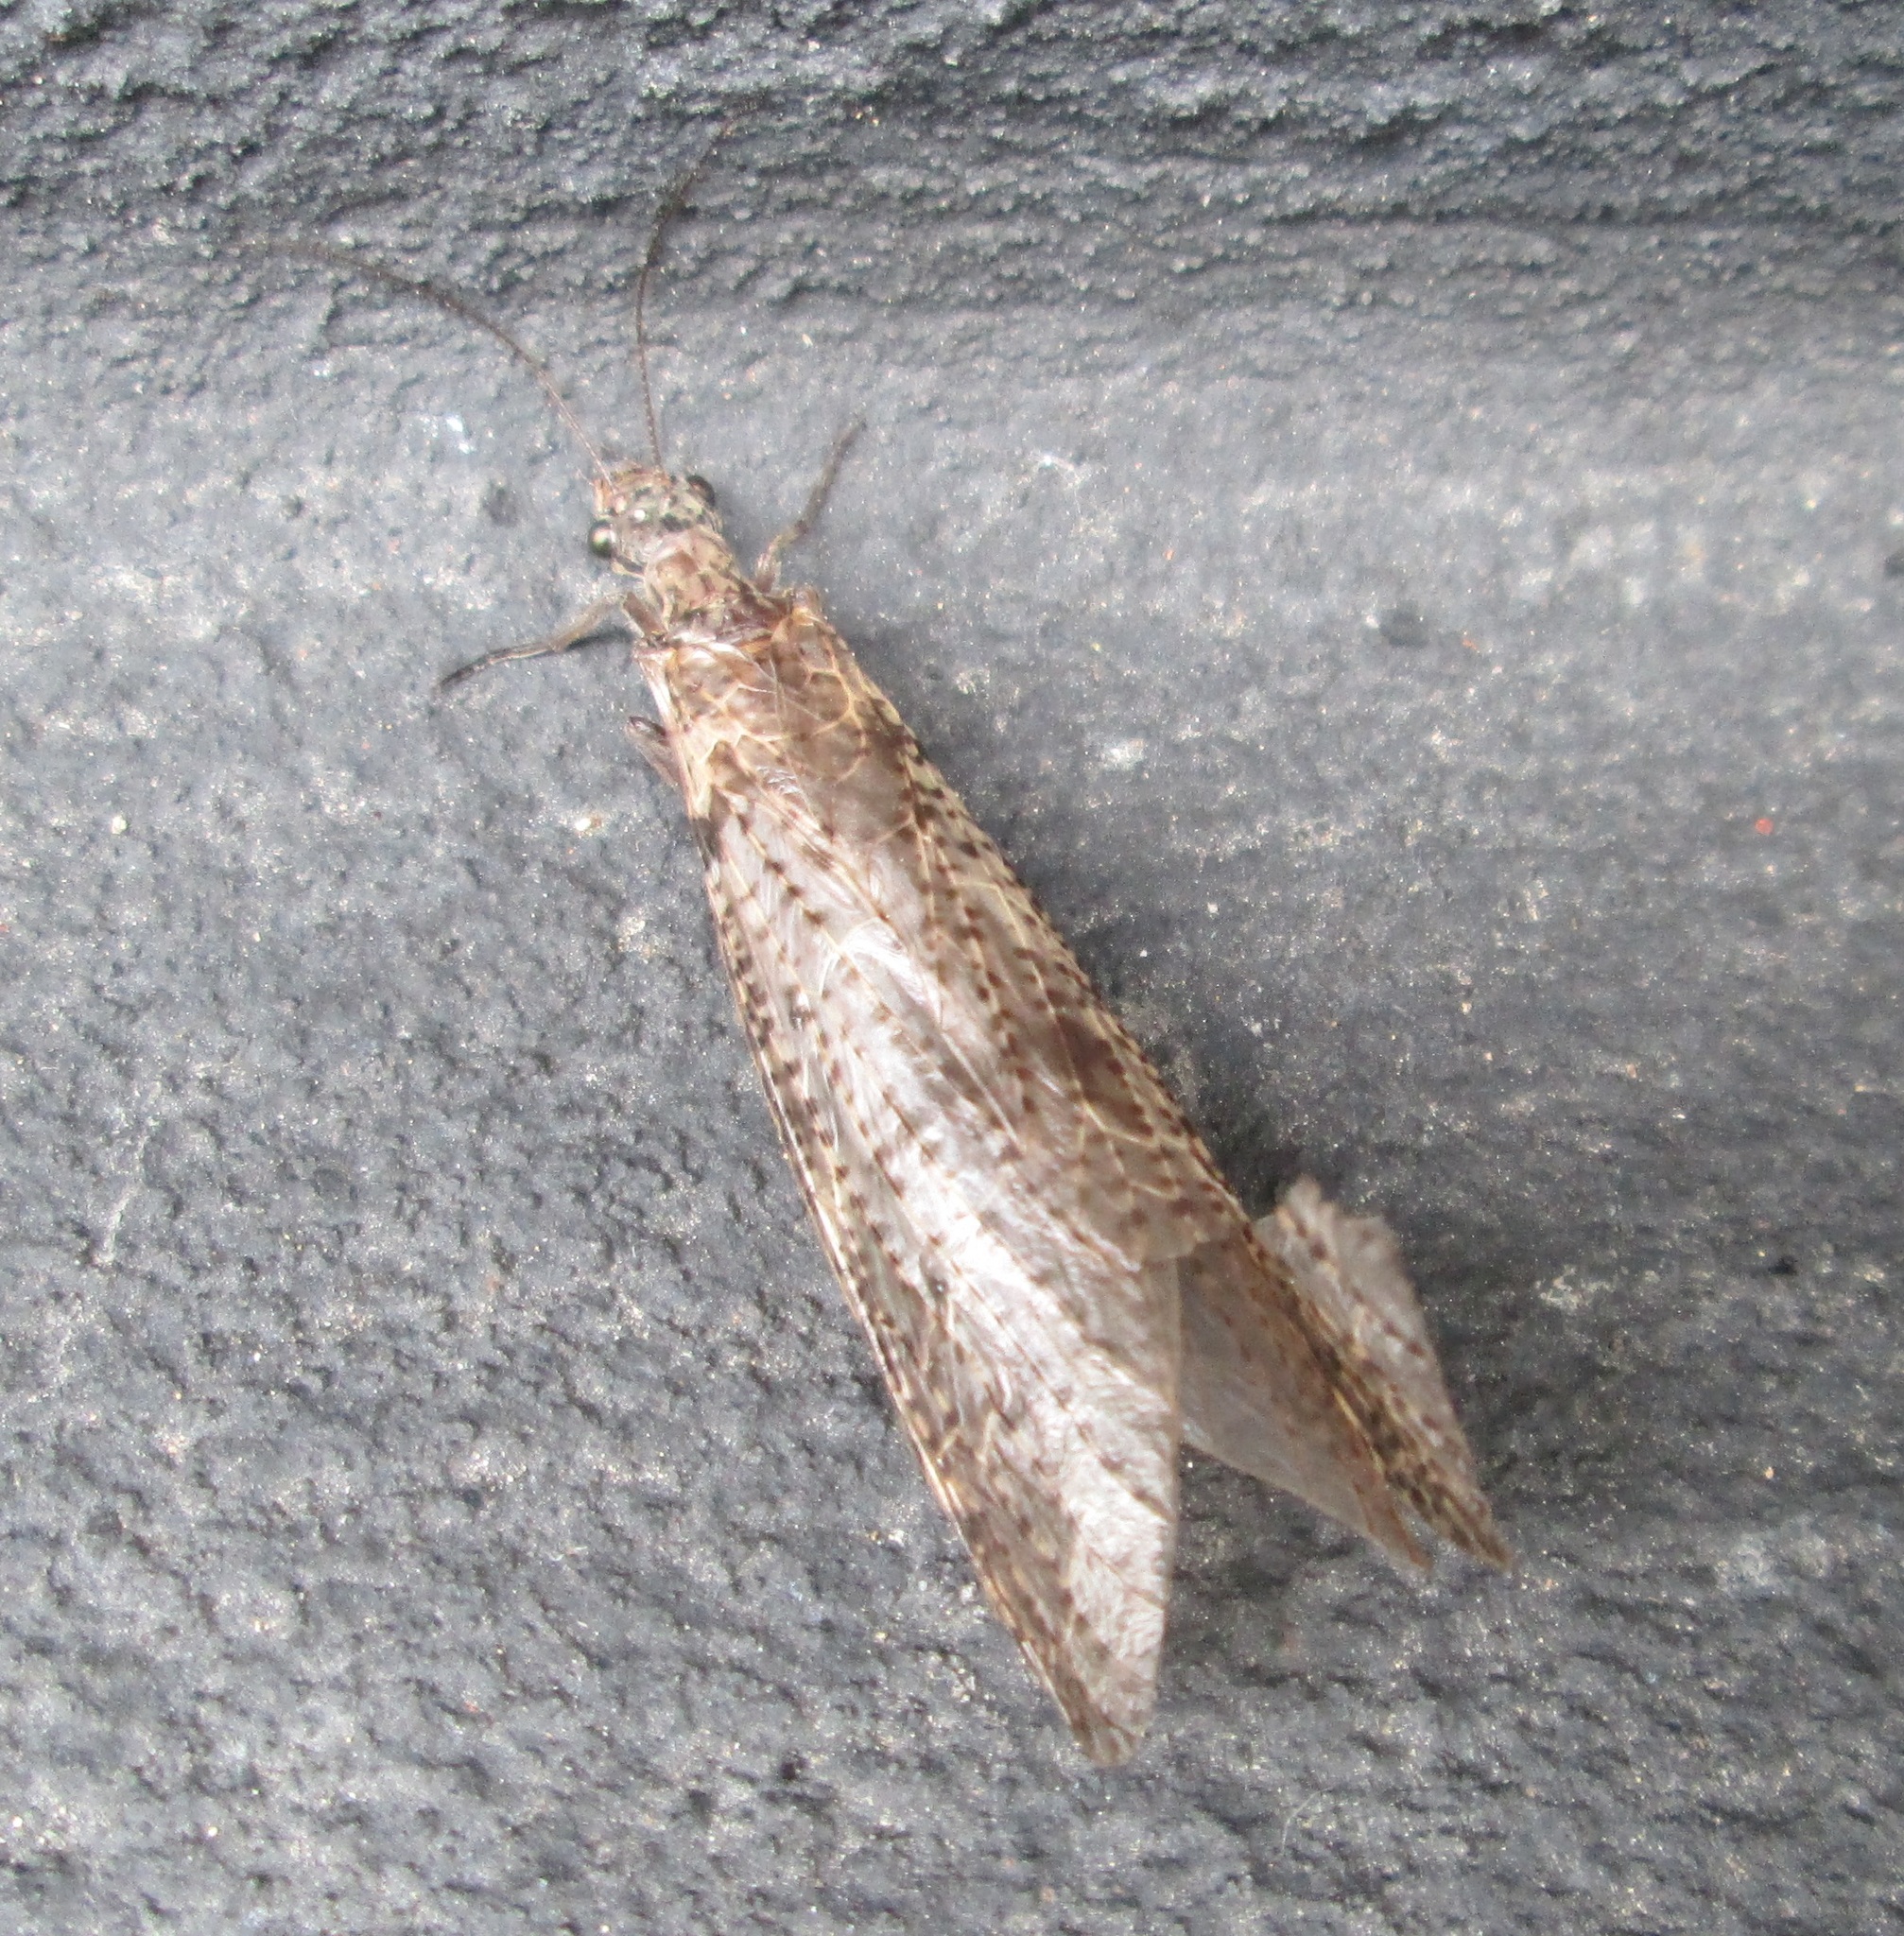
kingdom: Animalia
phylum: Arthropoda
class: Insecta
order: Megaloptera
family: Corydalidae
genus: Archichauliodes
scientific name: Archichauliodes diversus
